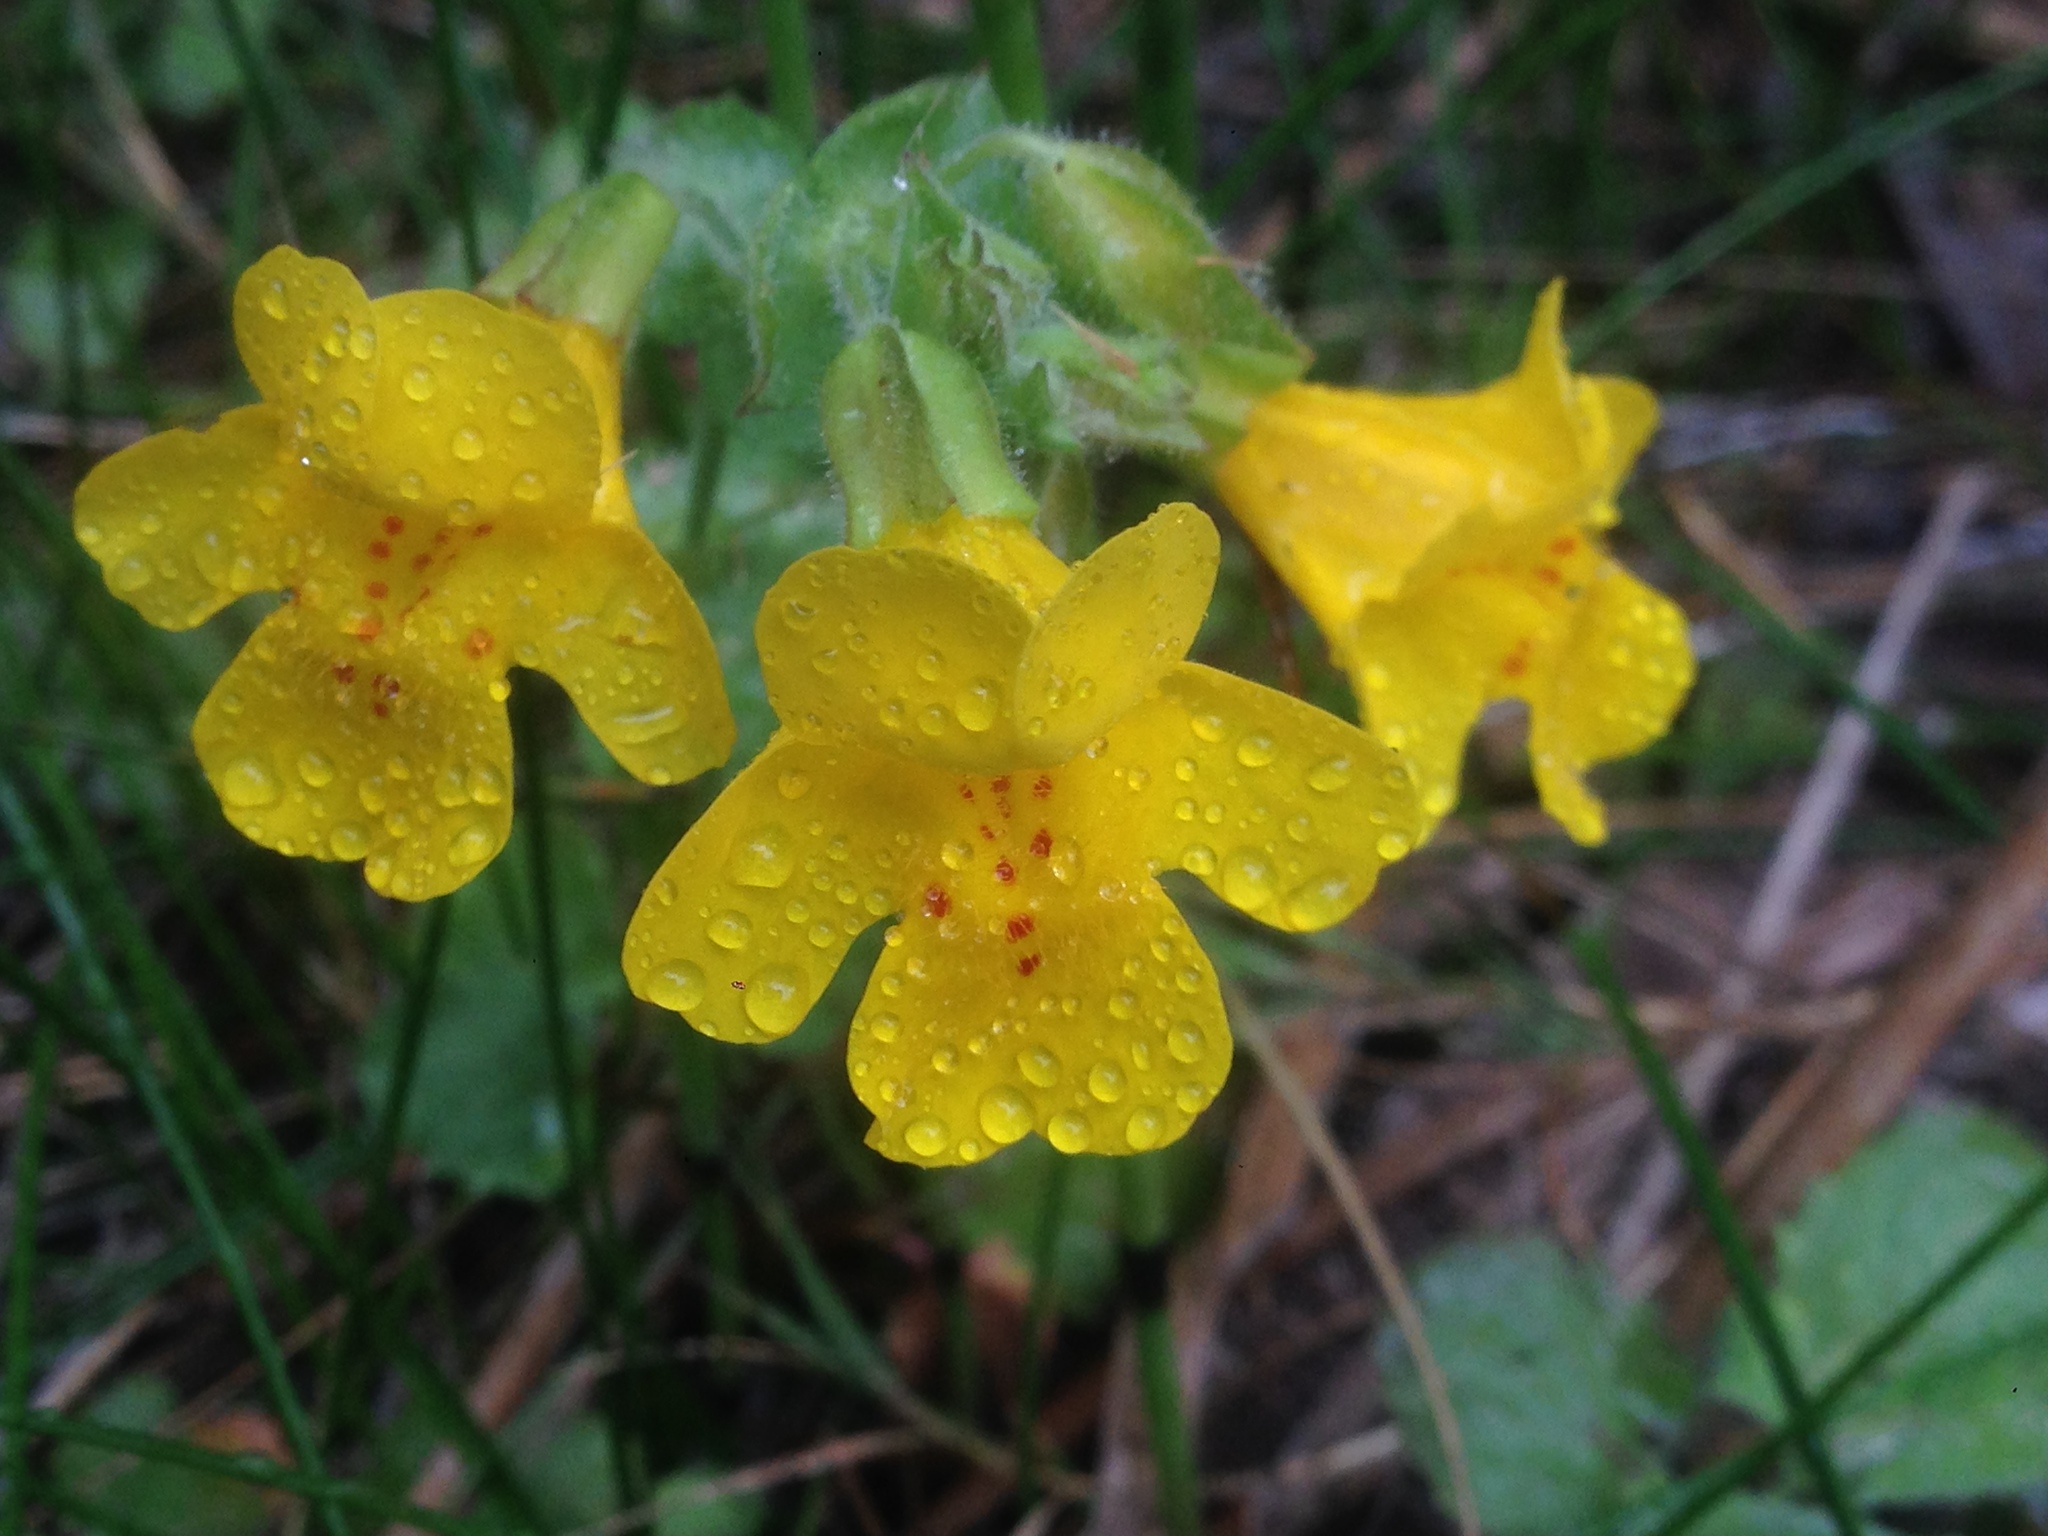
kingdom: Plantae
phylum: Tracheophyta
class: Magnoliopsida
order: Lamiales
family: Phrymaceae
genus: Erythranthe
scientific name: Erythranthe guttata
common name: Monkeyflower
